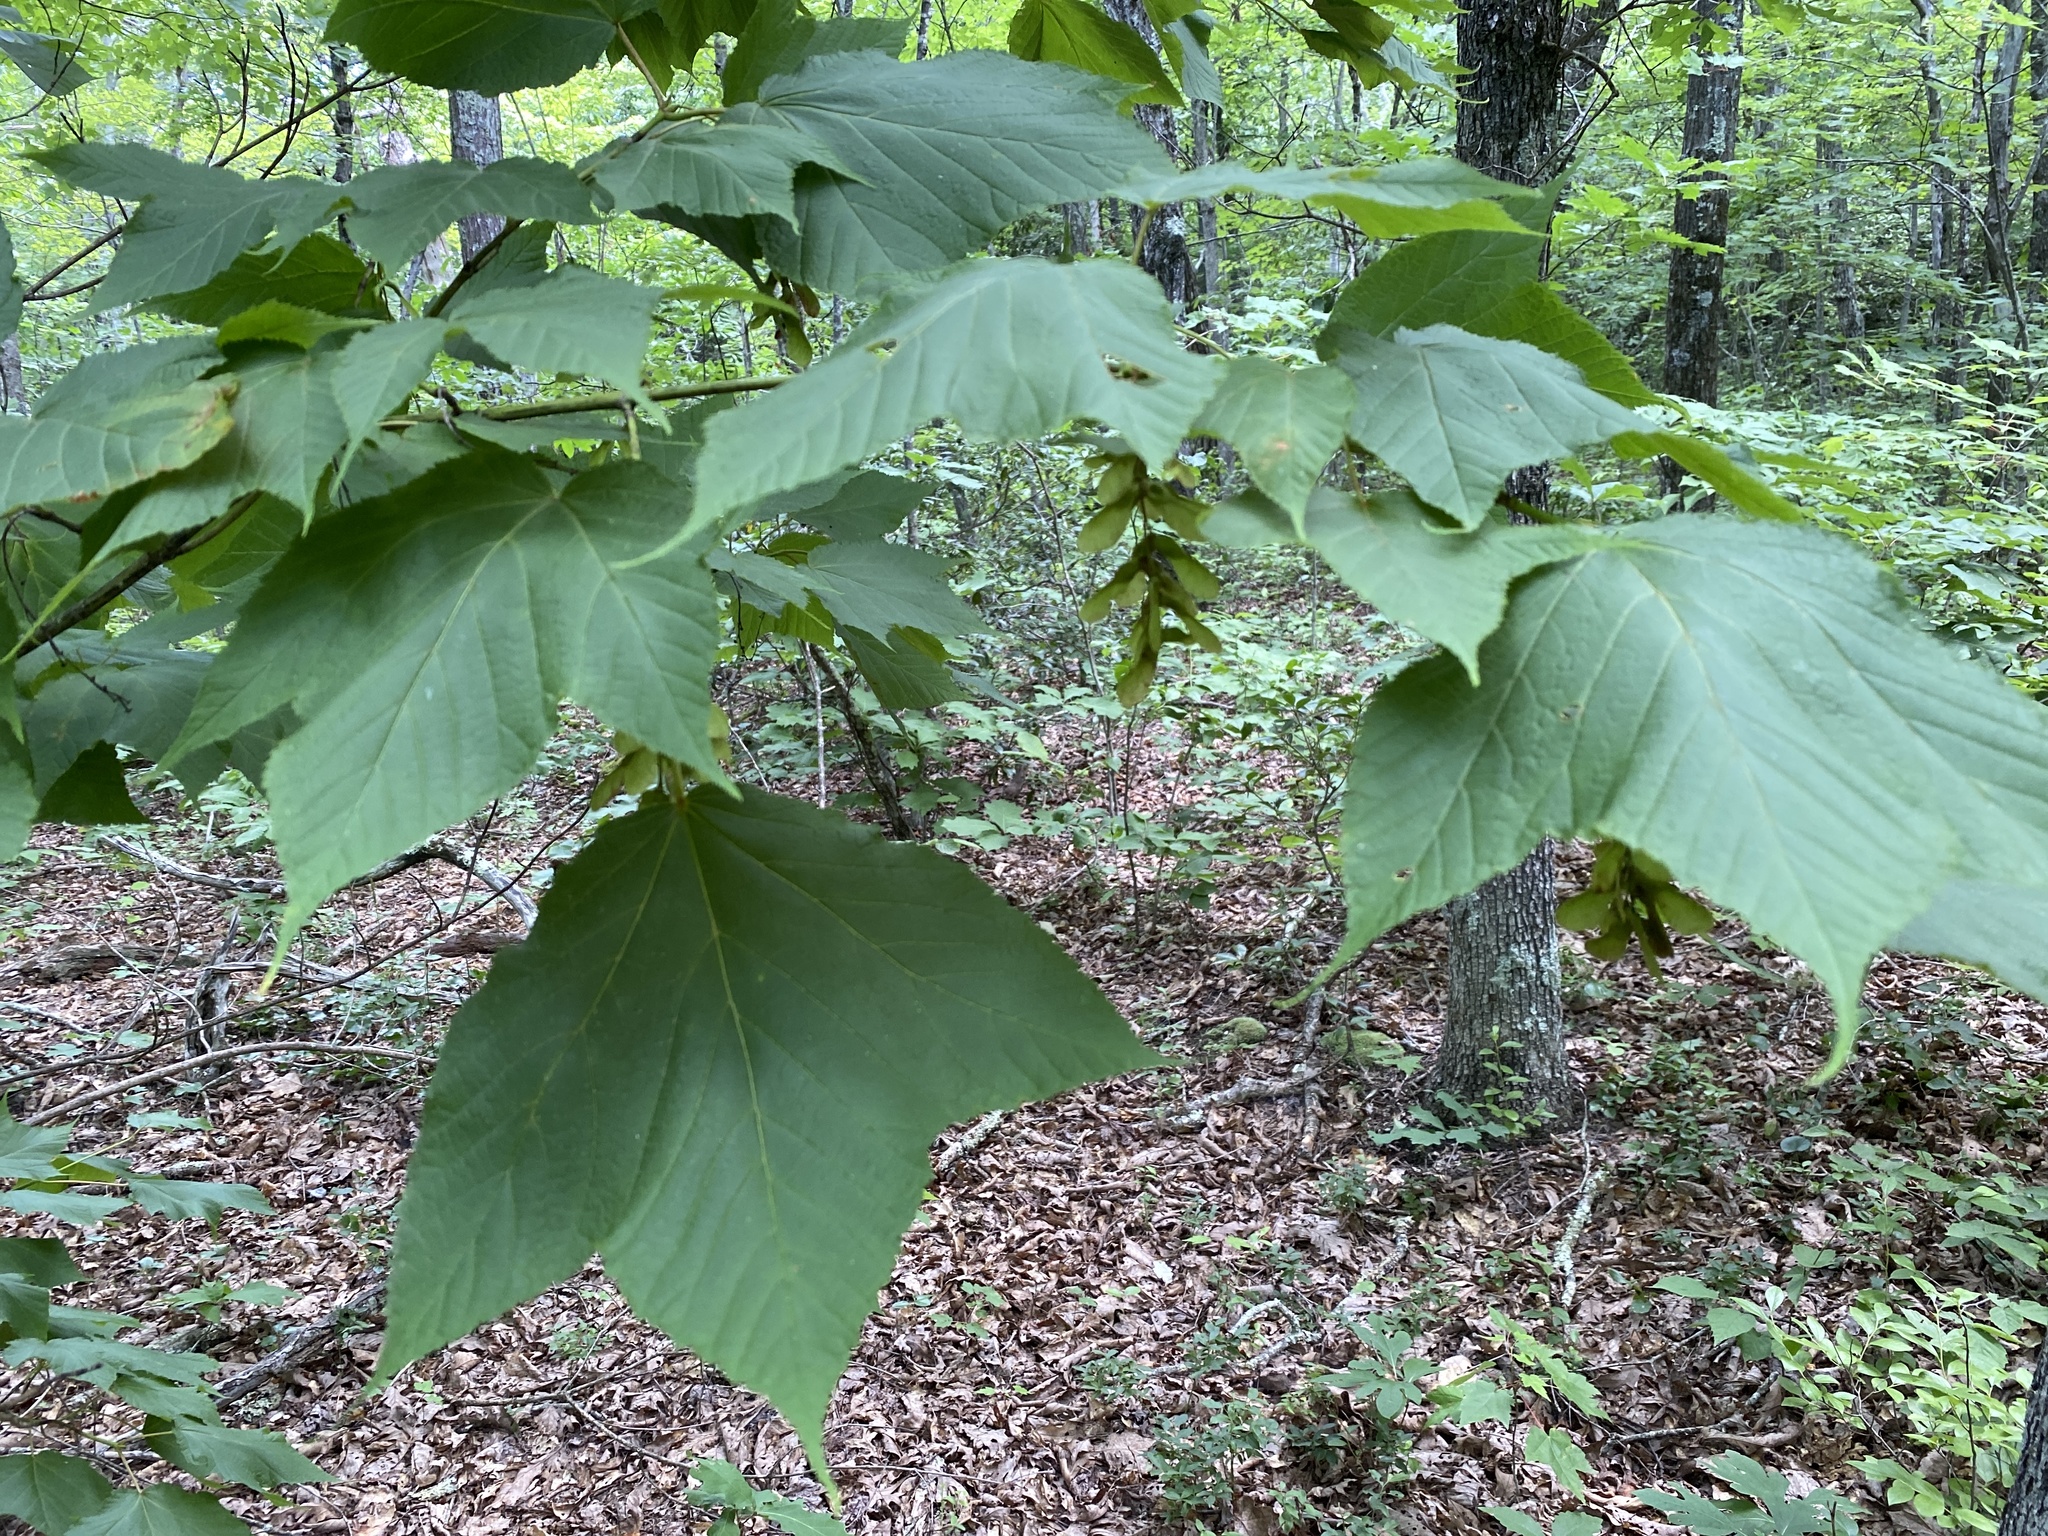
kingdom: Plantae
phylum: Tracheophyta
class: Magnoliopsida
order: Sapindales
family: Sapindaceae
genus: Acer
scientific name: Acer pensylvanicum
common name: Moosewood
